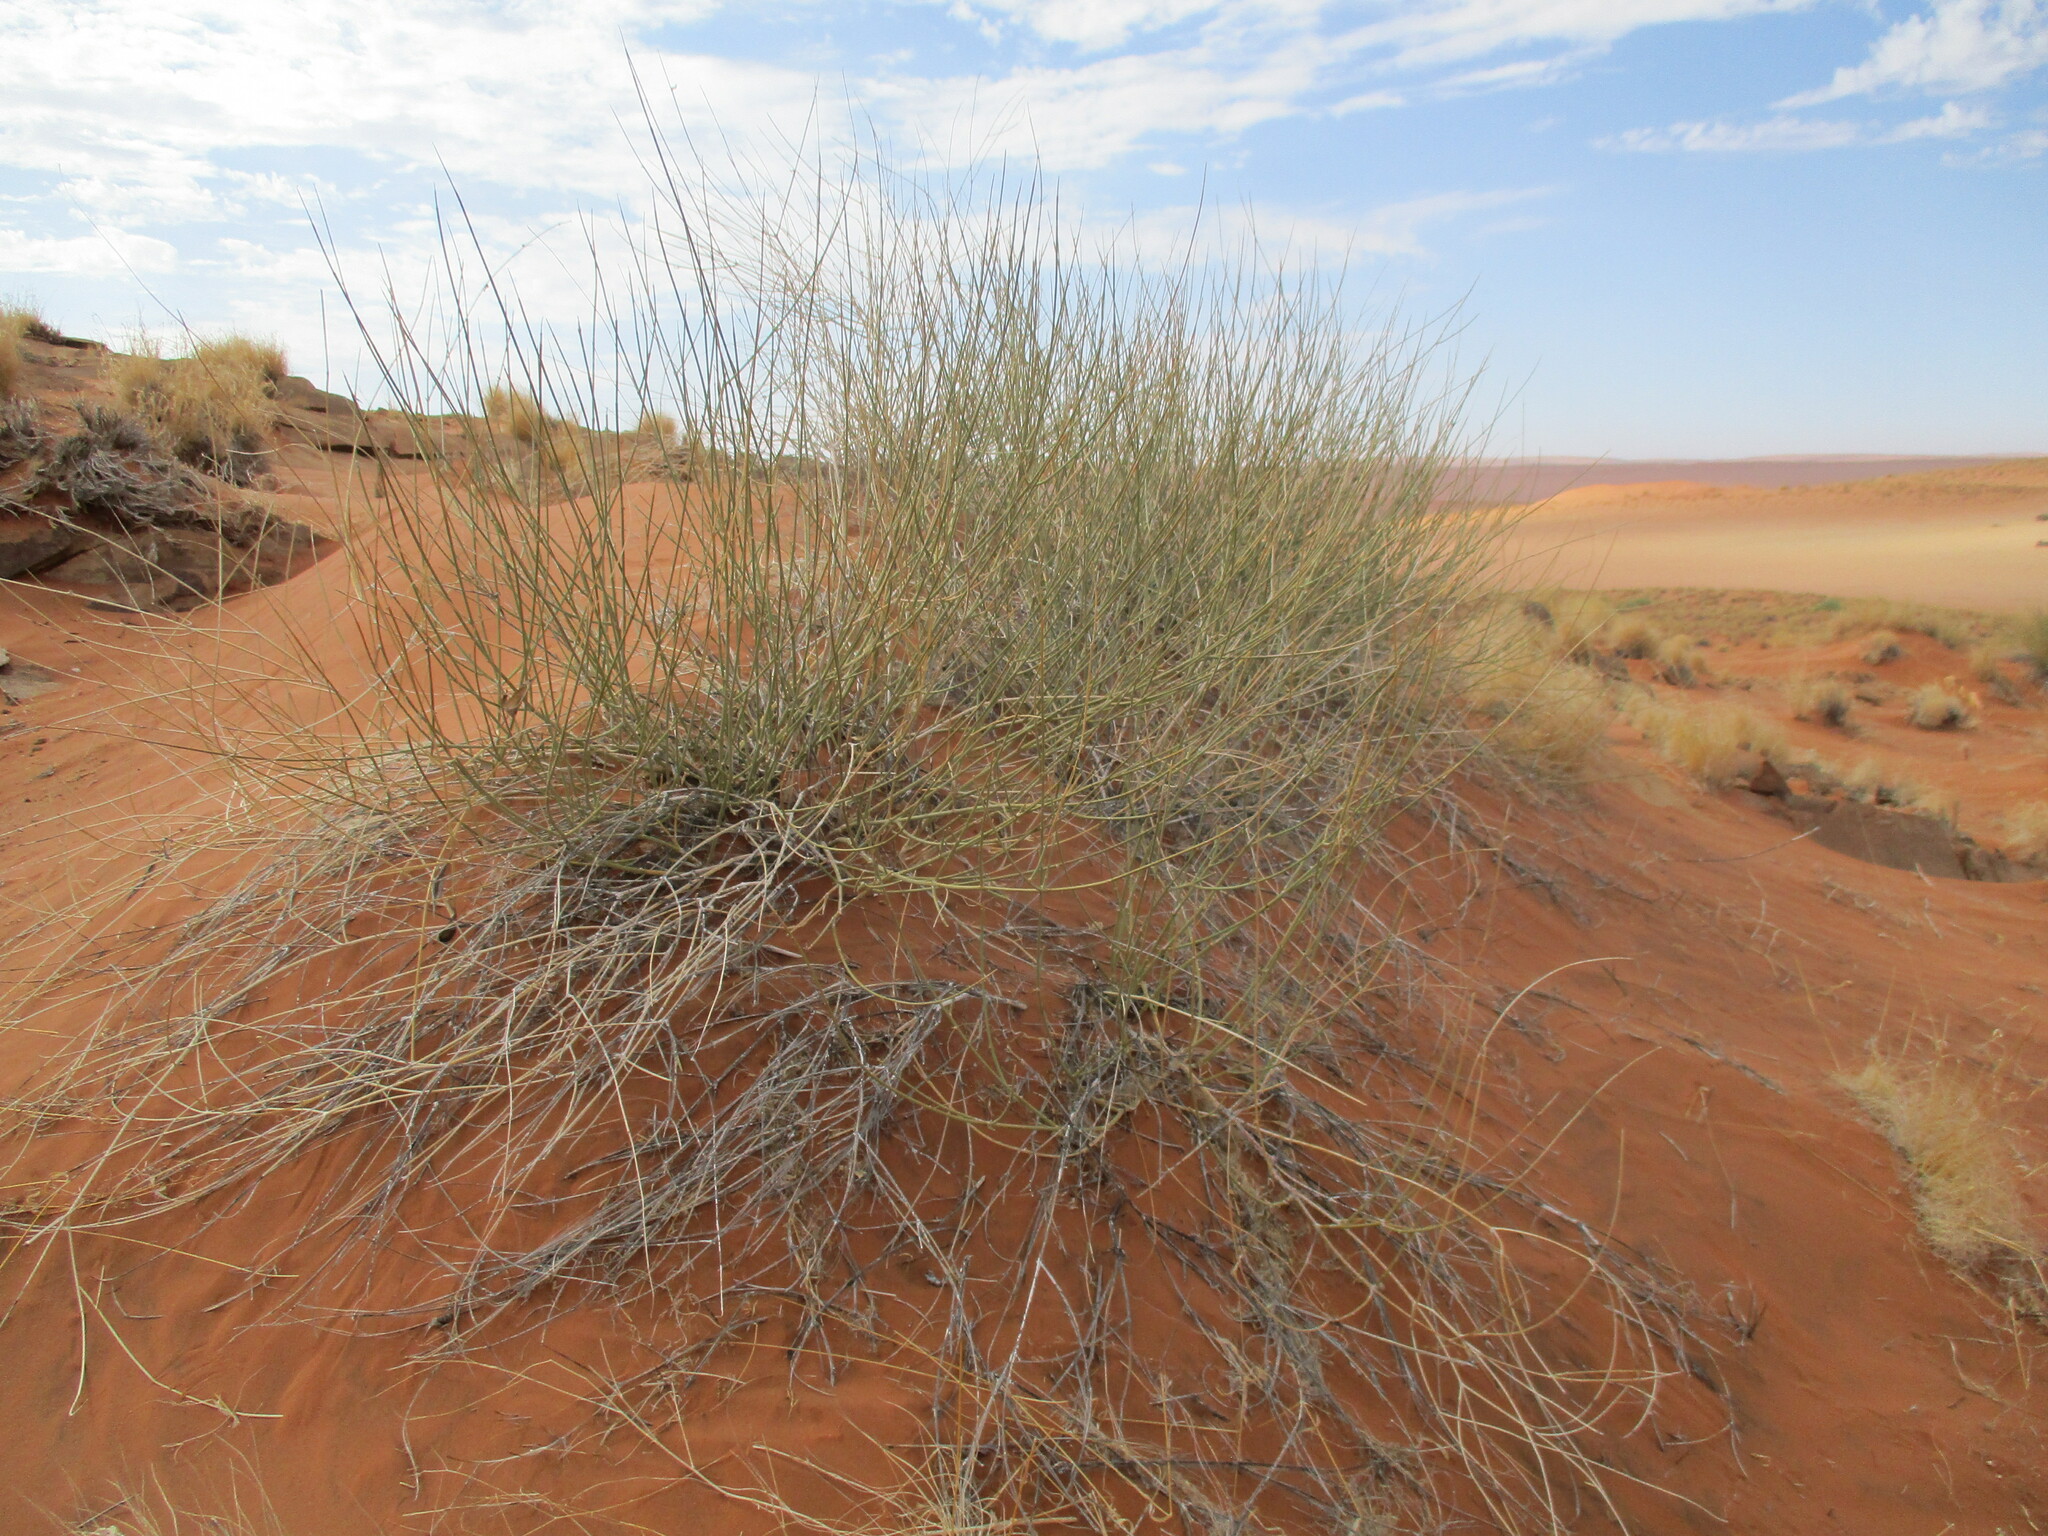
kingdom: Plantae
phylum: Tracheophyta
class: Magnoliopsida
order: Gentianales
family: Apocynaceae
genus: Cryptolepis
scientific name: Cryptolepis decidua
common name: Jackalplant
